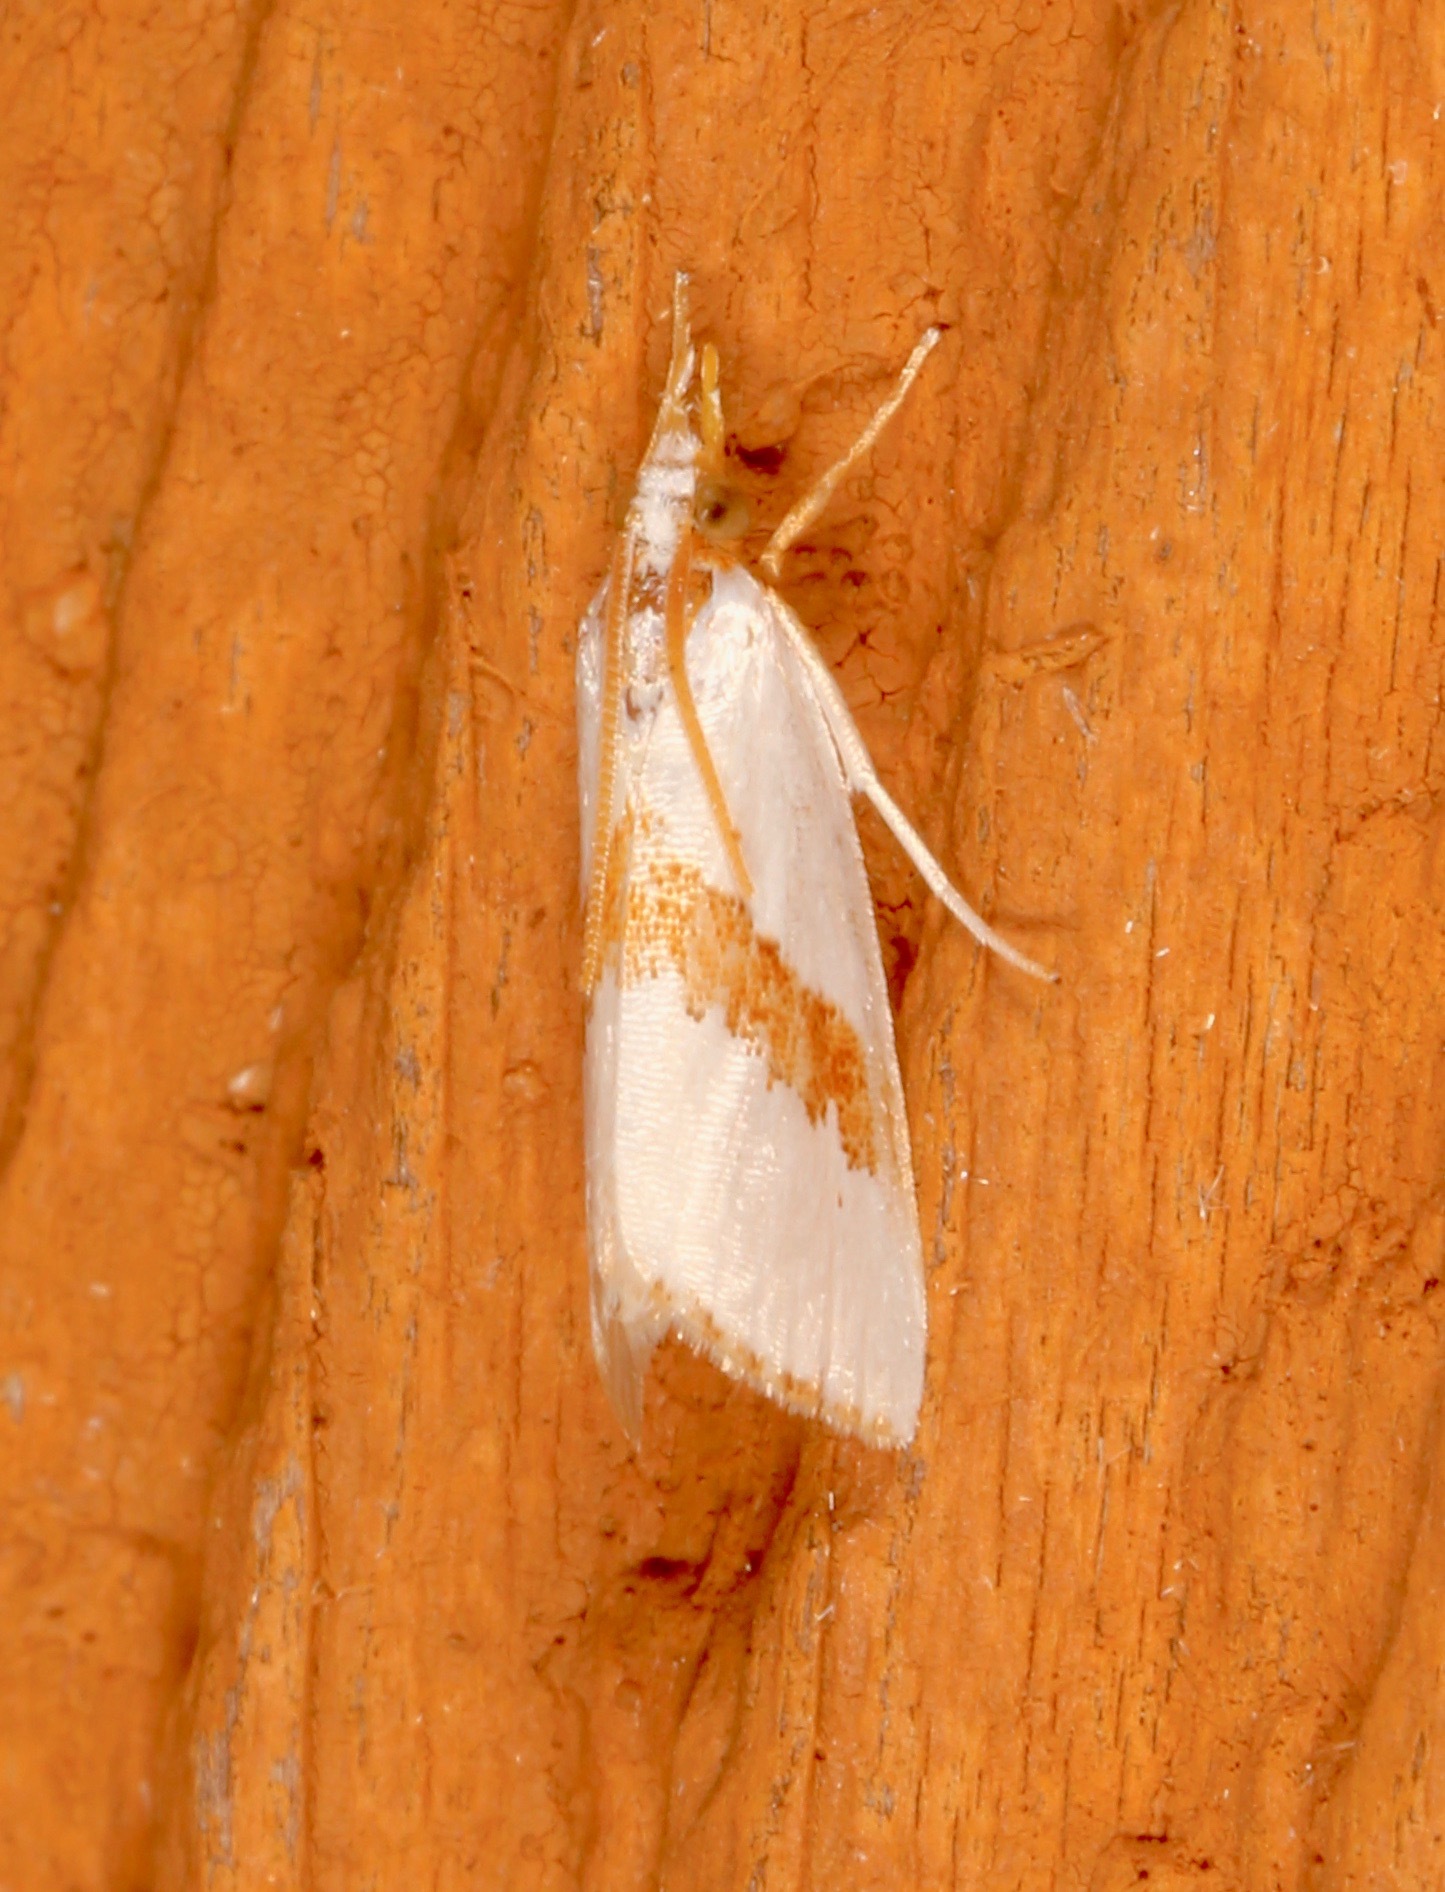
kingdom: Animalia
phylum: Arthropoda
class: Insecta
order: Lepidoptera
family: Crambidae
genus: Vaxi
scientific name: Vaxi critica
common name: Straight-lined vaxi moth
